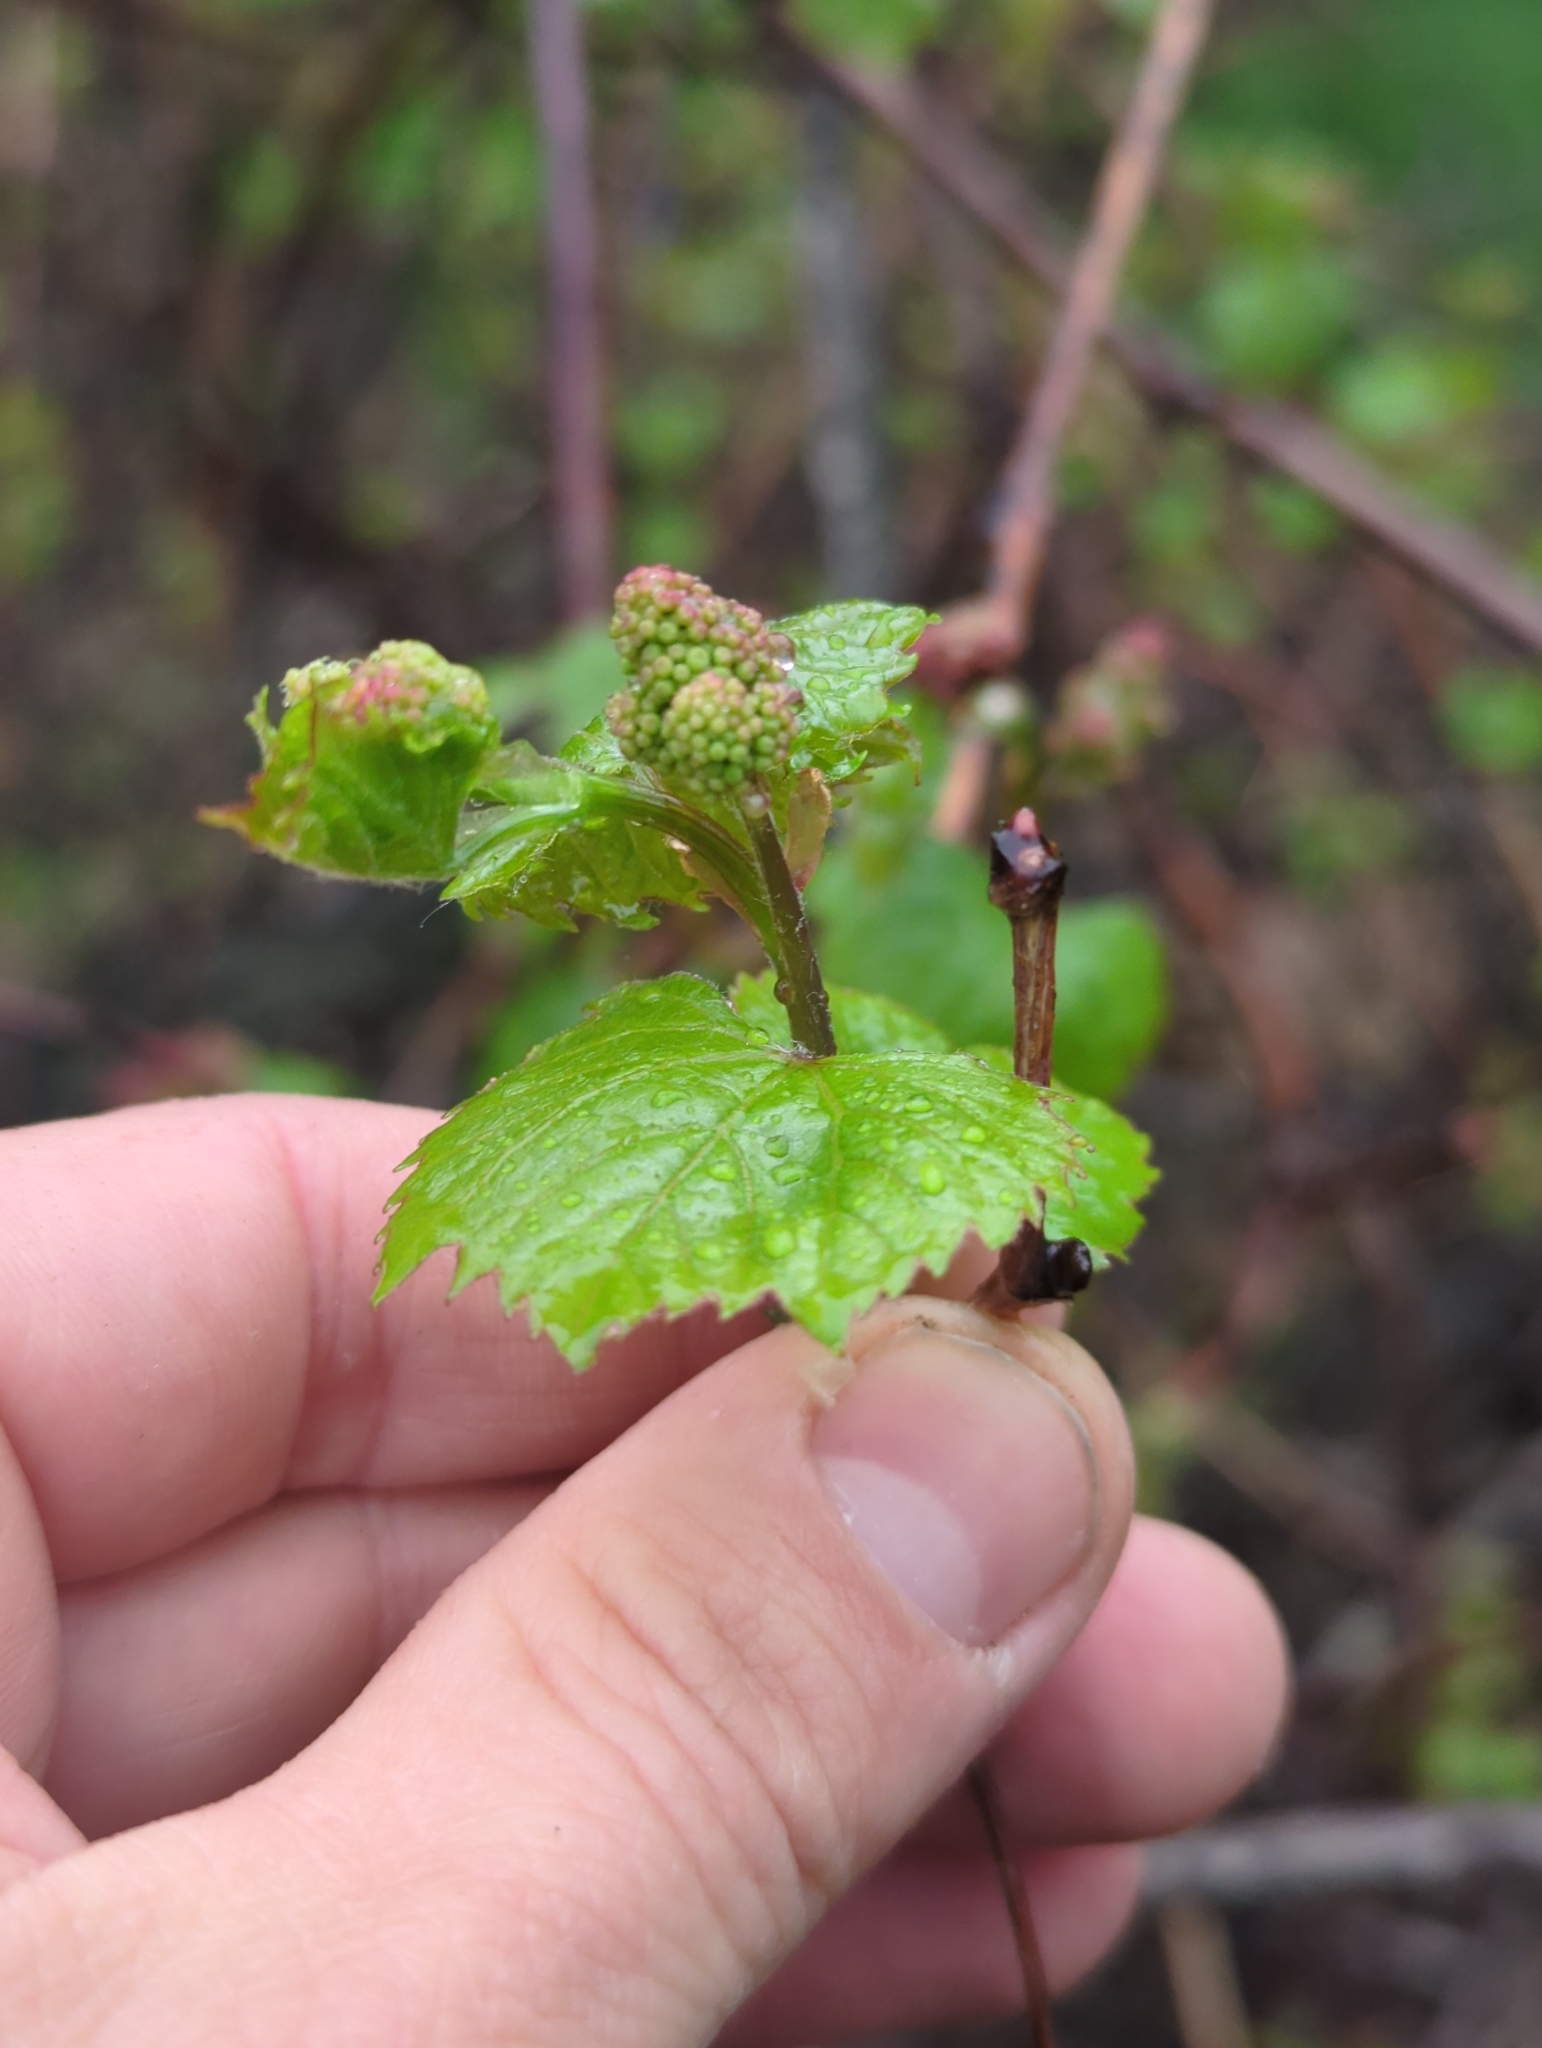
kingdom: Plantae
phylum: Tracheophyta
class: Magnoliopsida
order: Vitales
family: Vitaceae
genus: Vitis
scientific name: Vitis riparia
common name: Frost grape
